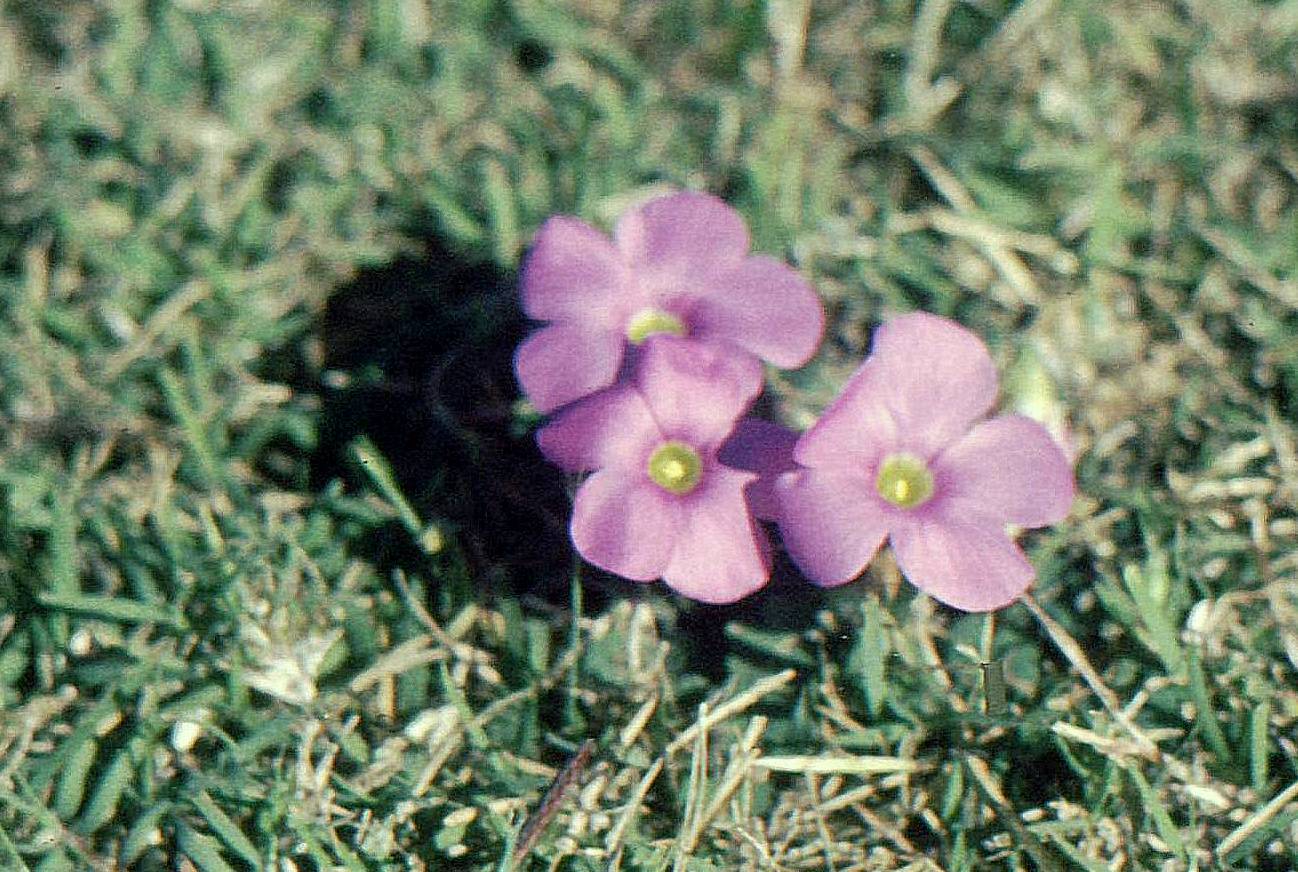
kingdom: Plantae
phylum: Tracheophyta
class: Magnoliopsida
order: Oxalidales
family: Oxalidaceae
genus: Oxalis
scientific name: Oxalis
